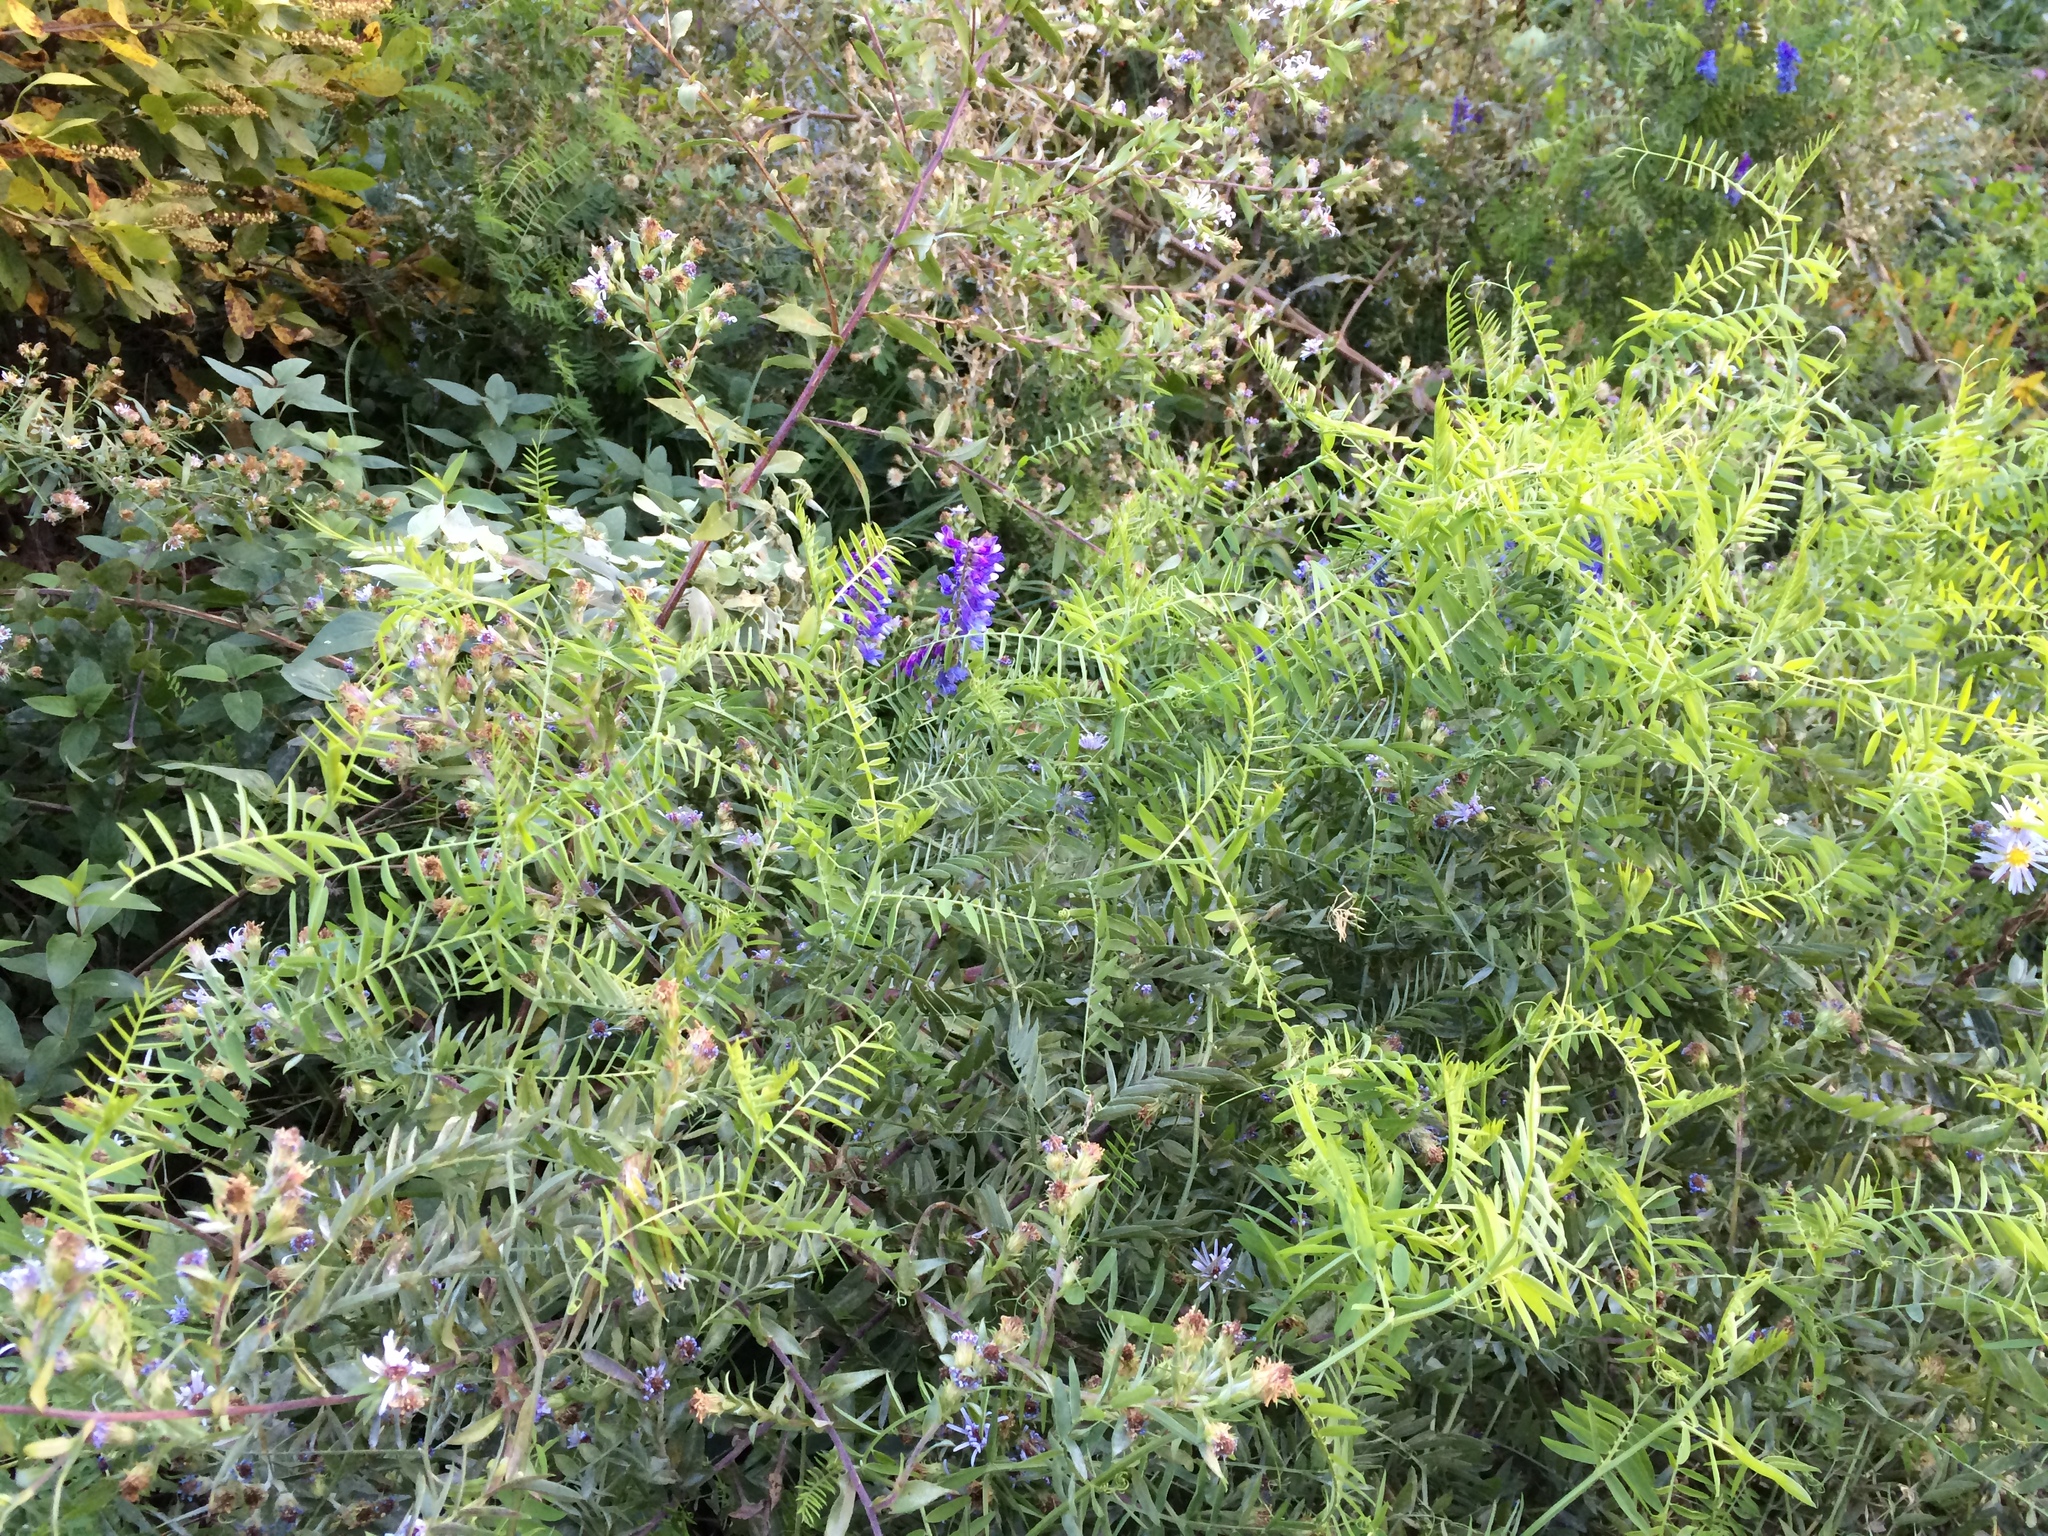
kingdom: Plantae
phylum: Tracheophyta
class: Magnoliopsida
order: Fabales
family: Fabaceae
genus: Vicia
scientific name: Vicia cracca
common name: Bird vetch
